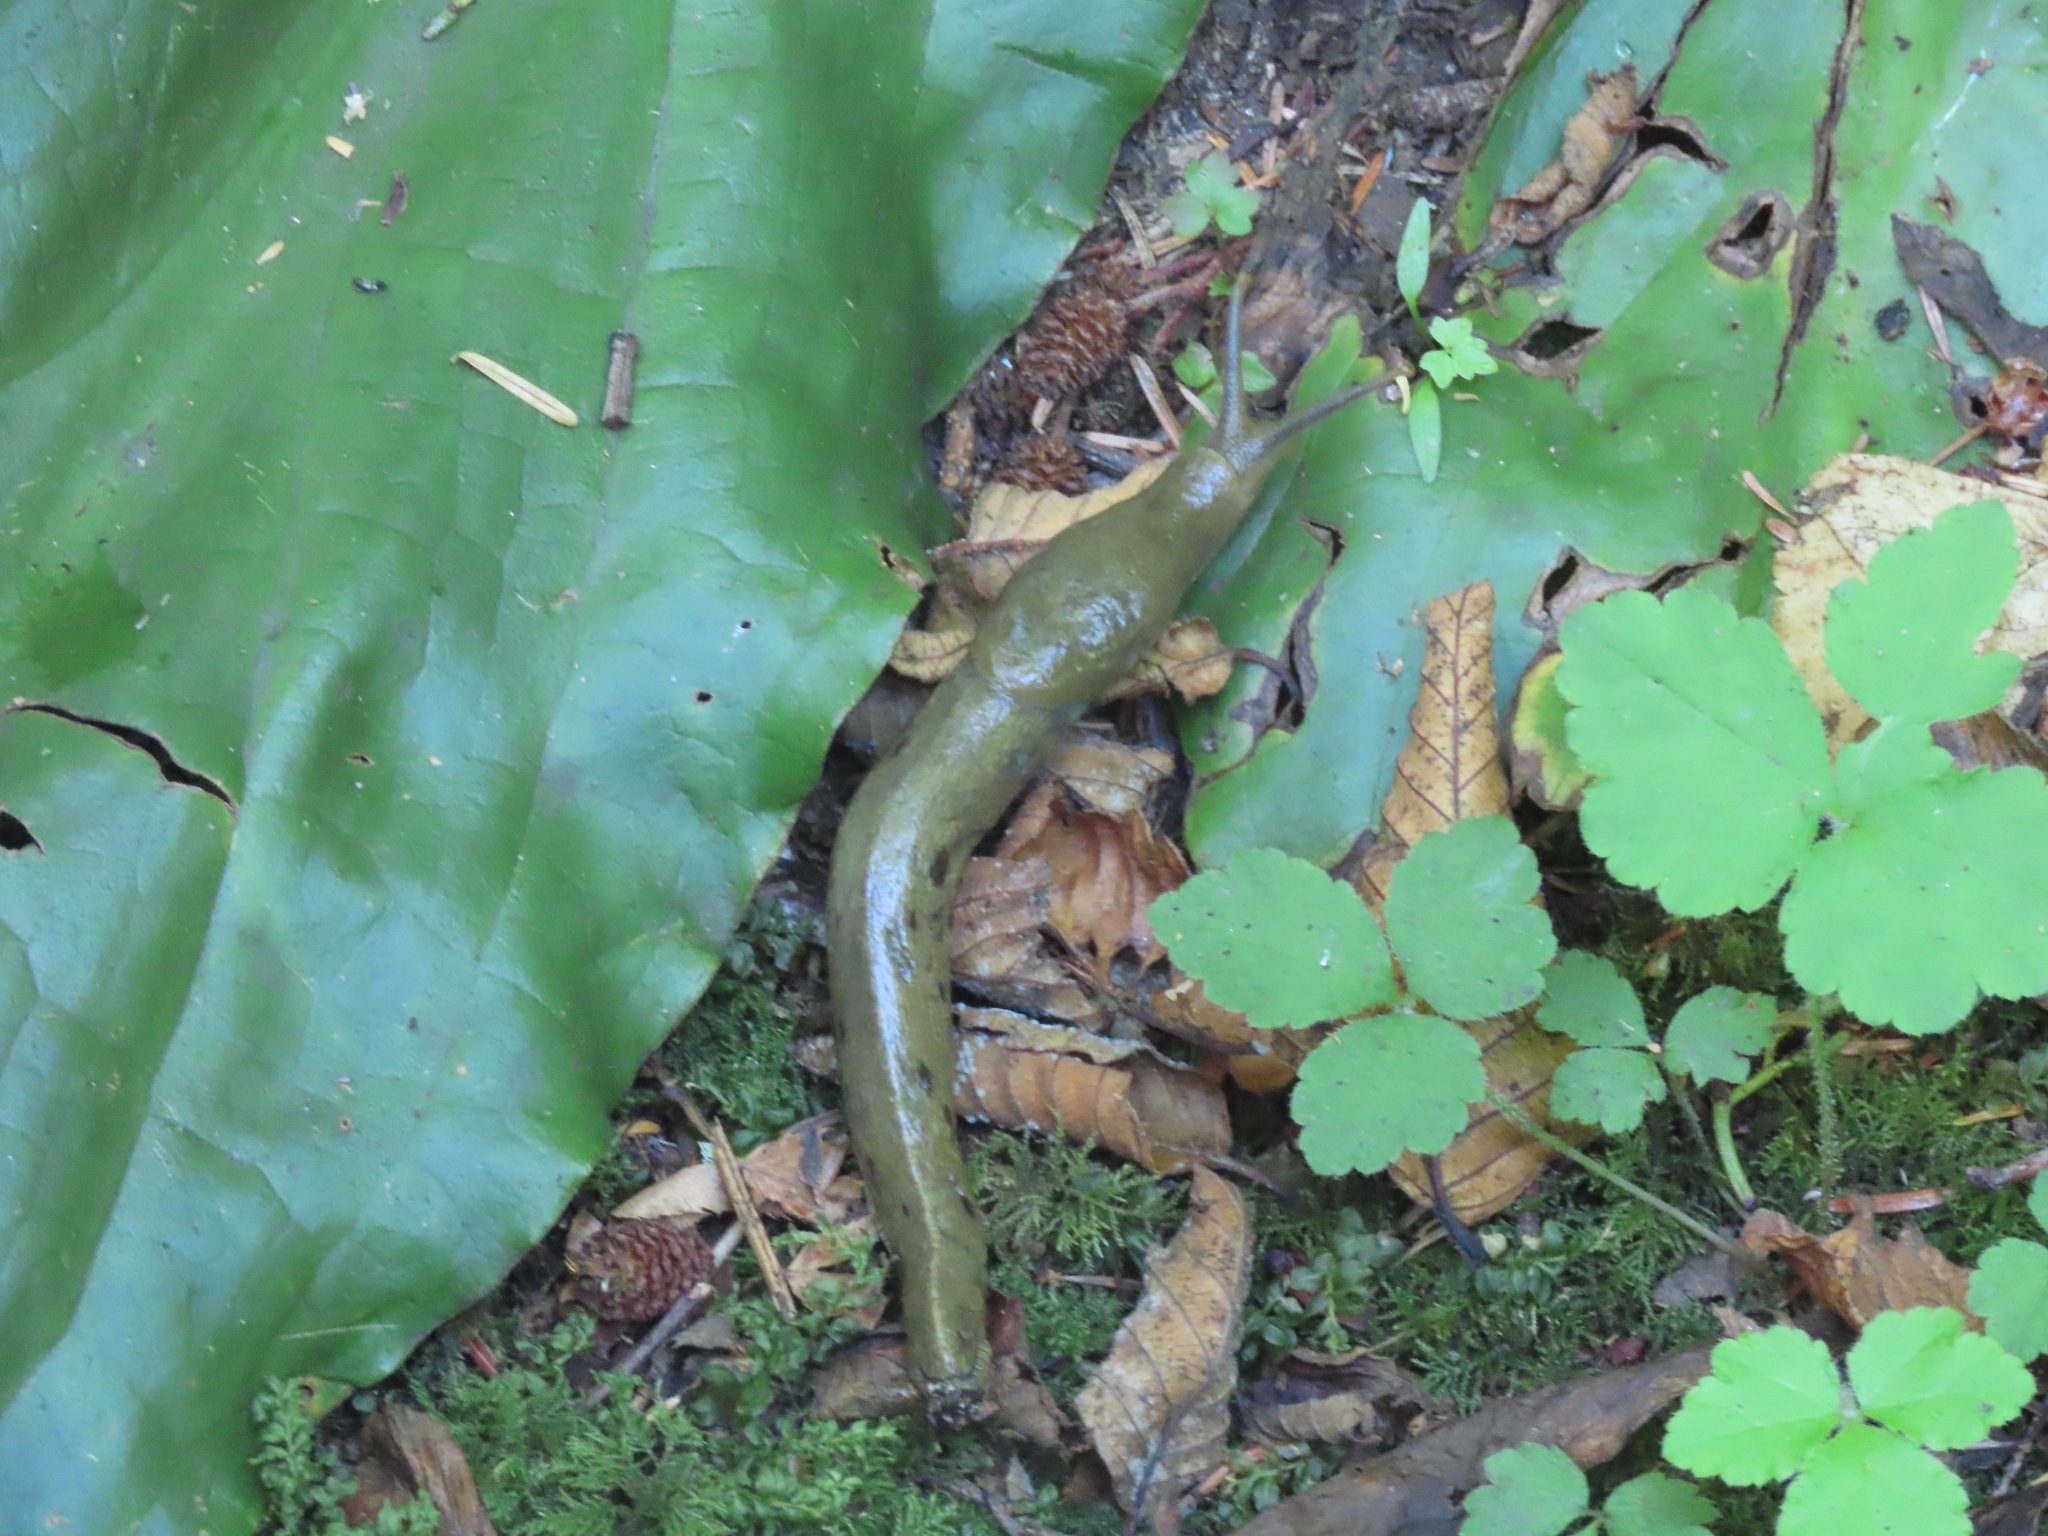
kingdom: Animalia
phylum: Mollusca
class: Gastropoda
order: Stylommatophora
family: Ariolimacidae
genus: Ariolimax
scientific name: Ariolimax columbianus
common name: Pacific banana slug
